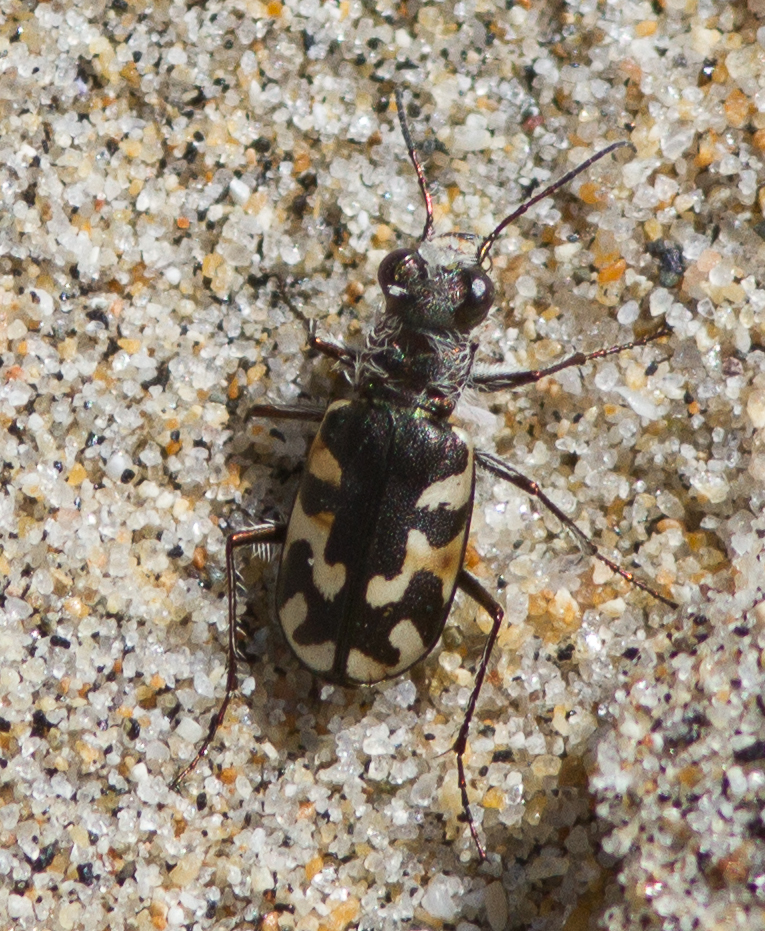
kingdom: Animalia
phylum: Arthropoda
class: Insecta
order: Coleoptera
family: Carabidae
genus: Cicindela
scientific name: Cicindela latesignata
